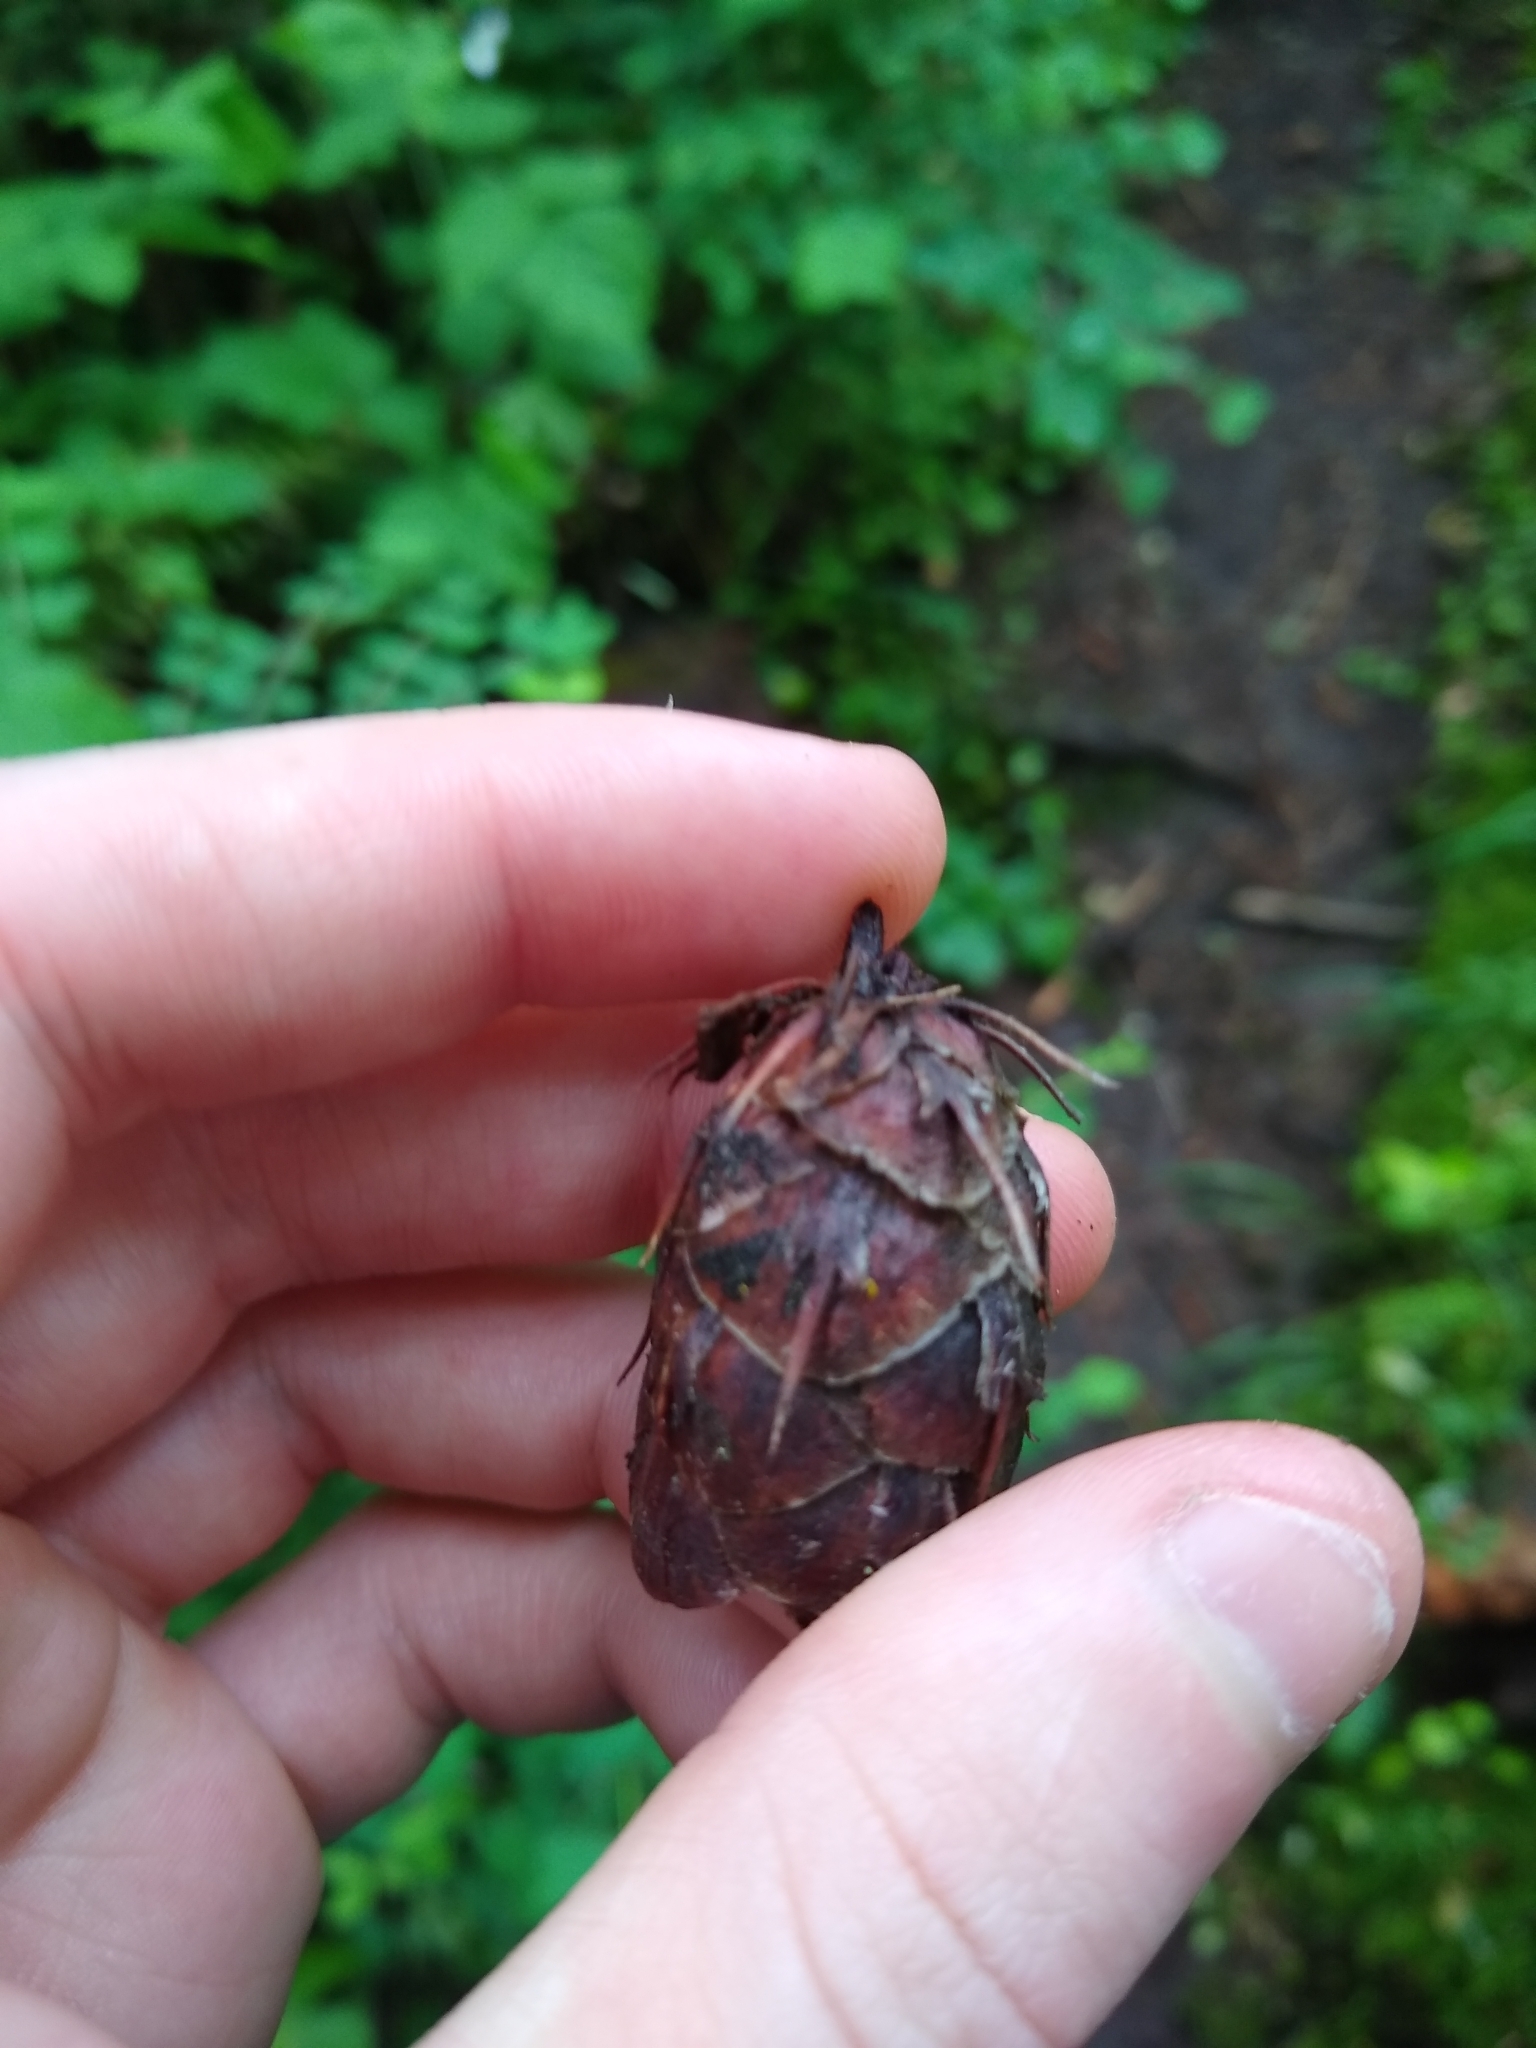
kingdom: Plantae
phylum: Tracheophyta
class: Pinopsida
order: Pinales
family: Pinaceae
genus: Pseudotsuga
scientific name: Pseudotsuga menziesii
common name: Douglas fir
